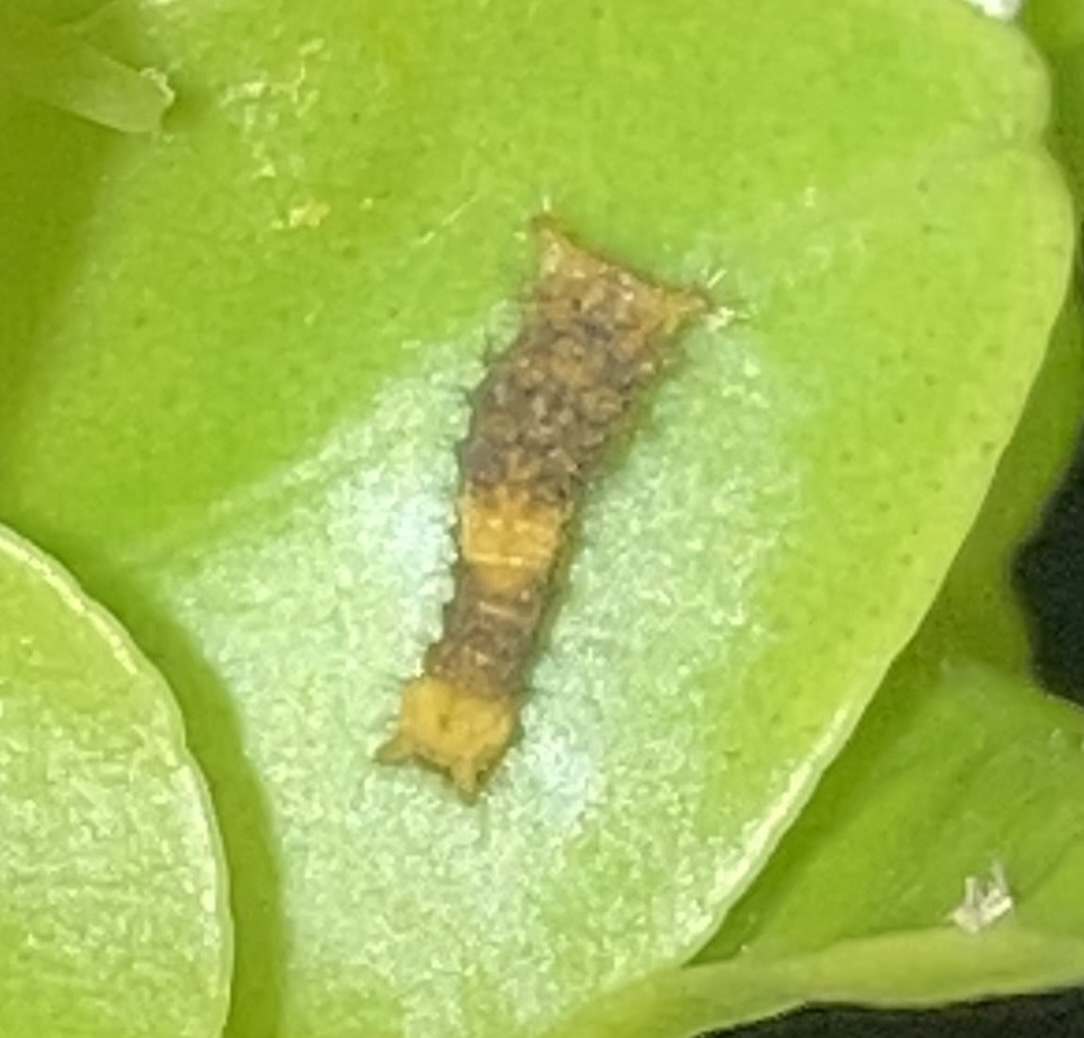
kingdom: Animalia
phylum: Arthropoda
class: Insecta
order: Lepidoptera
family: Papilionidae
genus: Papilio
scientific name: Papilio cresphontes
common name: Giant swallowtail
